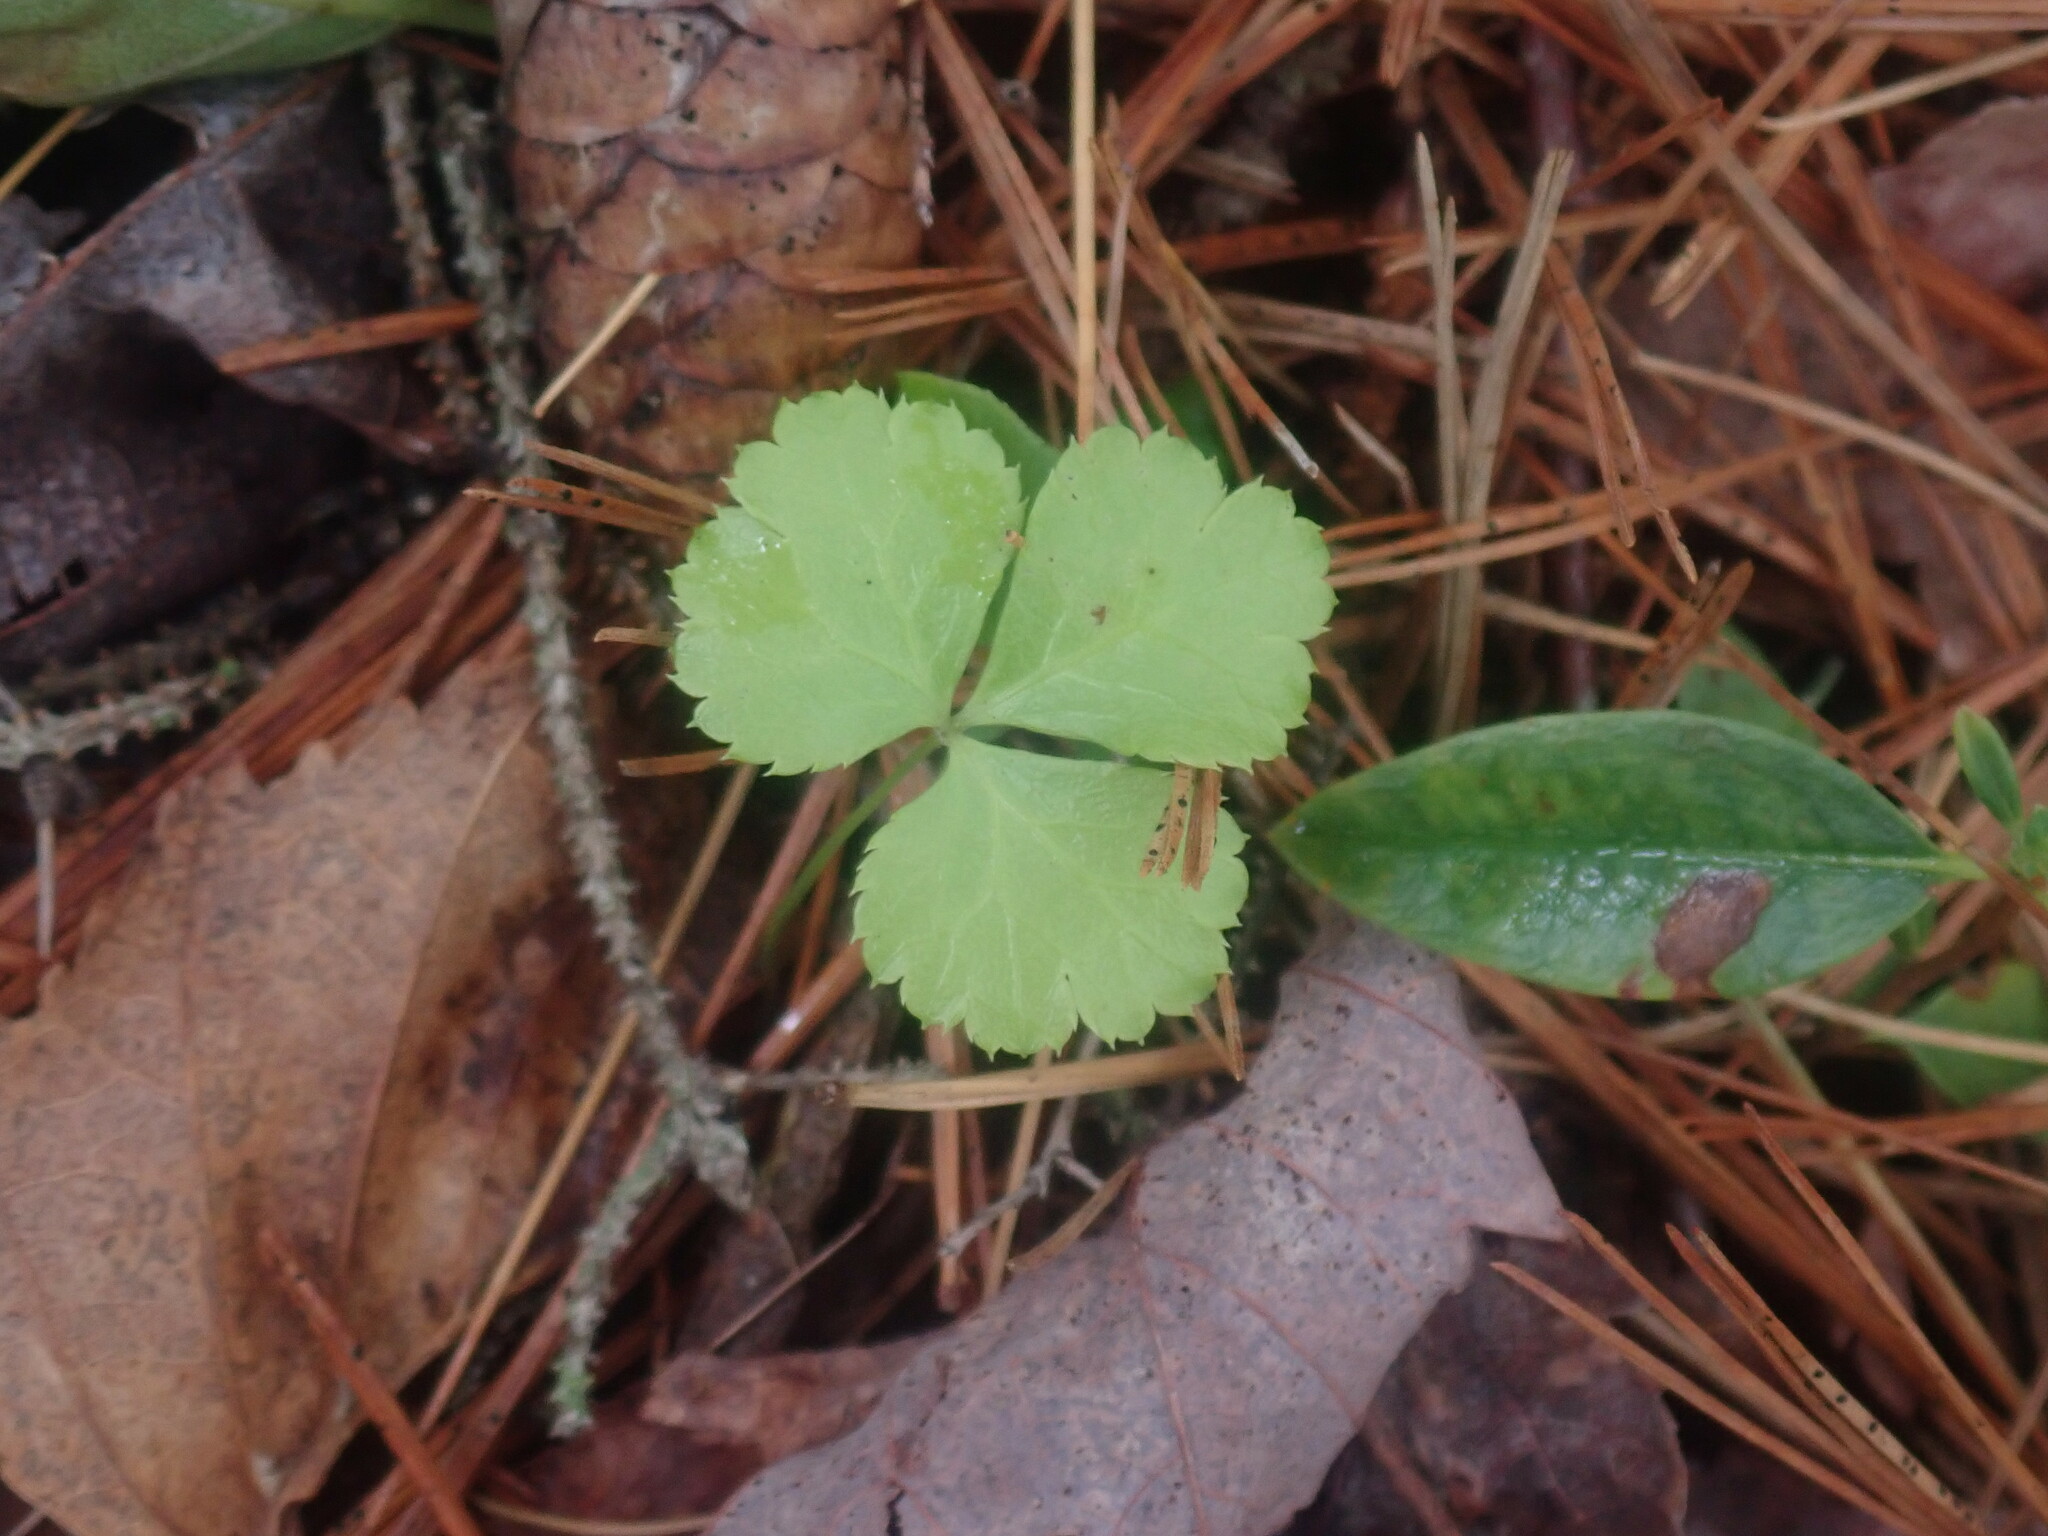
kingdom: Plantae
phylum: Tracheophyta
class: Magnoliopsida
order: Ranunculales
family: Ranunculaceae
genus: Coptis
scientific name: Coptis trifolia
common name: Canker-root
